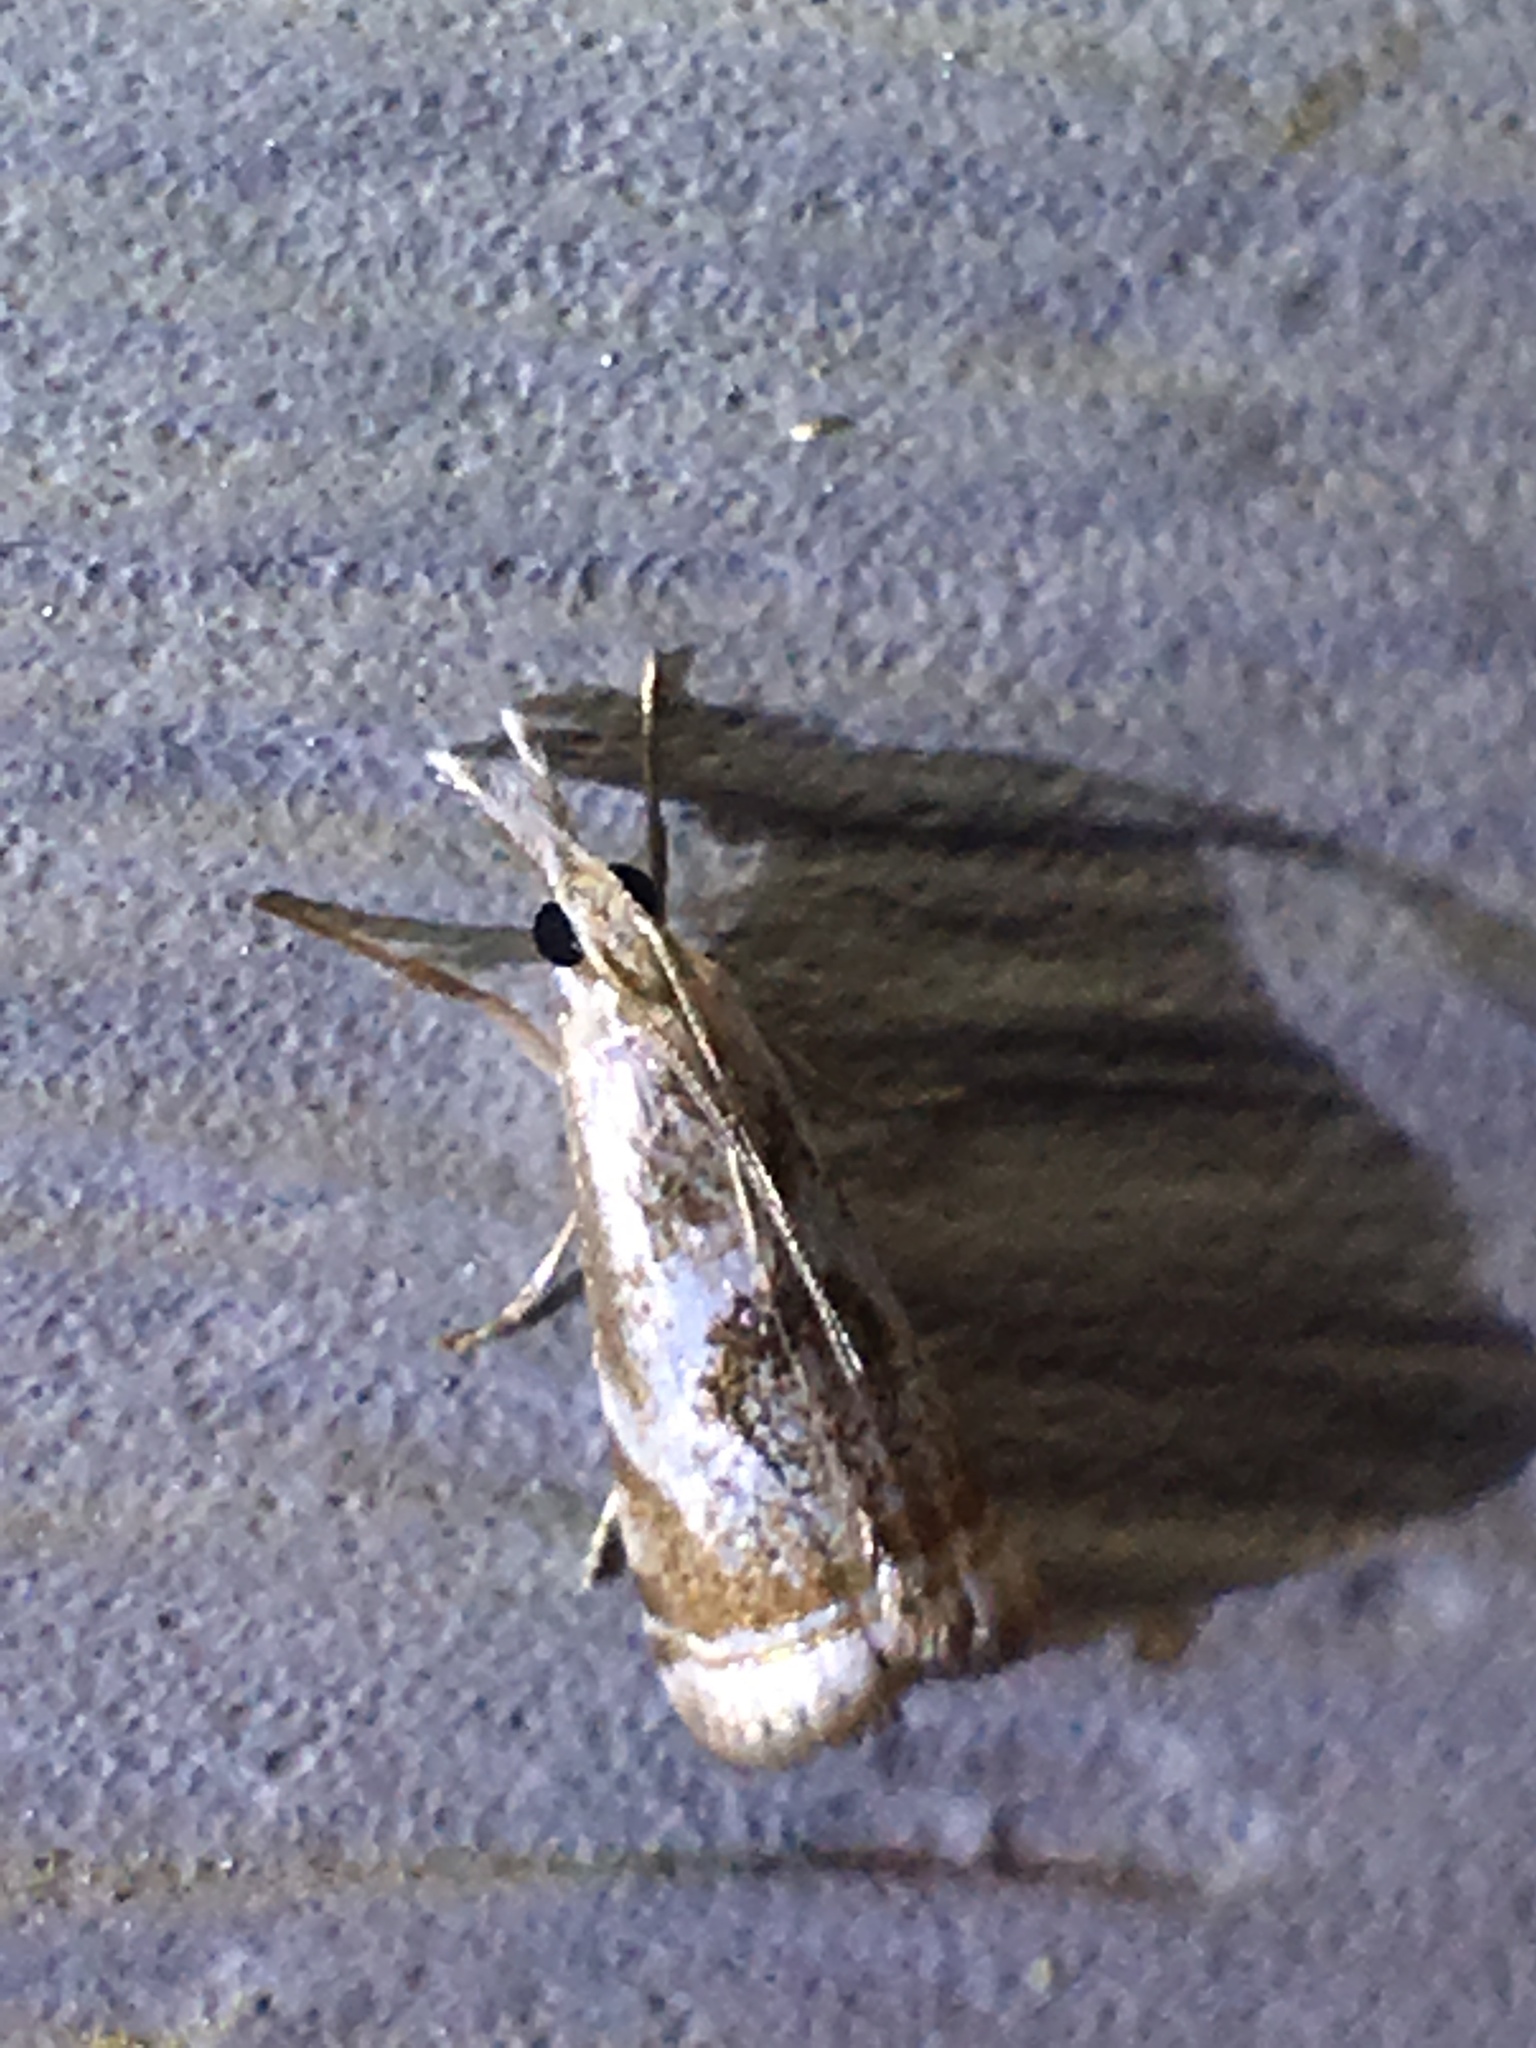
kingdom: Animalia
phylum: Arthropoda
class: Insecta
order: Lepidoptera
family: Crambidae
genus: Microcrambus
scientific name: Microcrambus elegans
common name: Elegant grass-veneer
